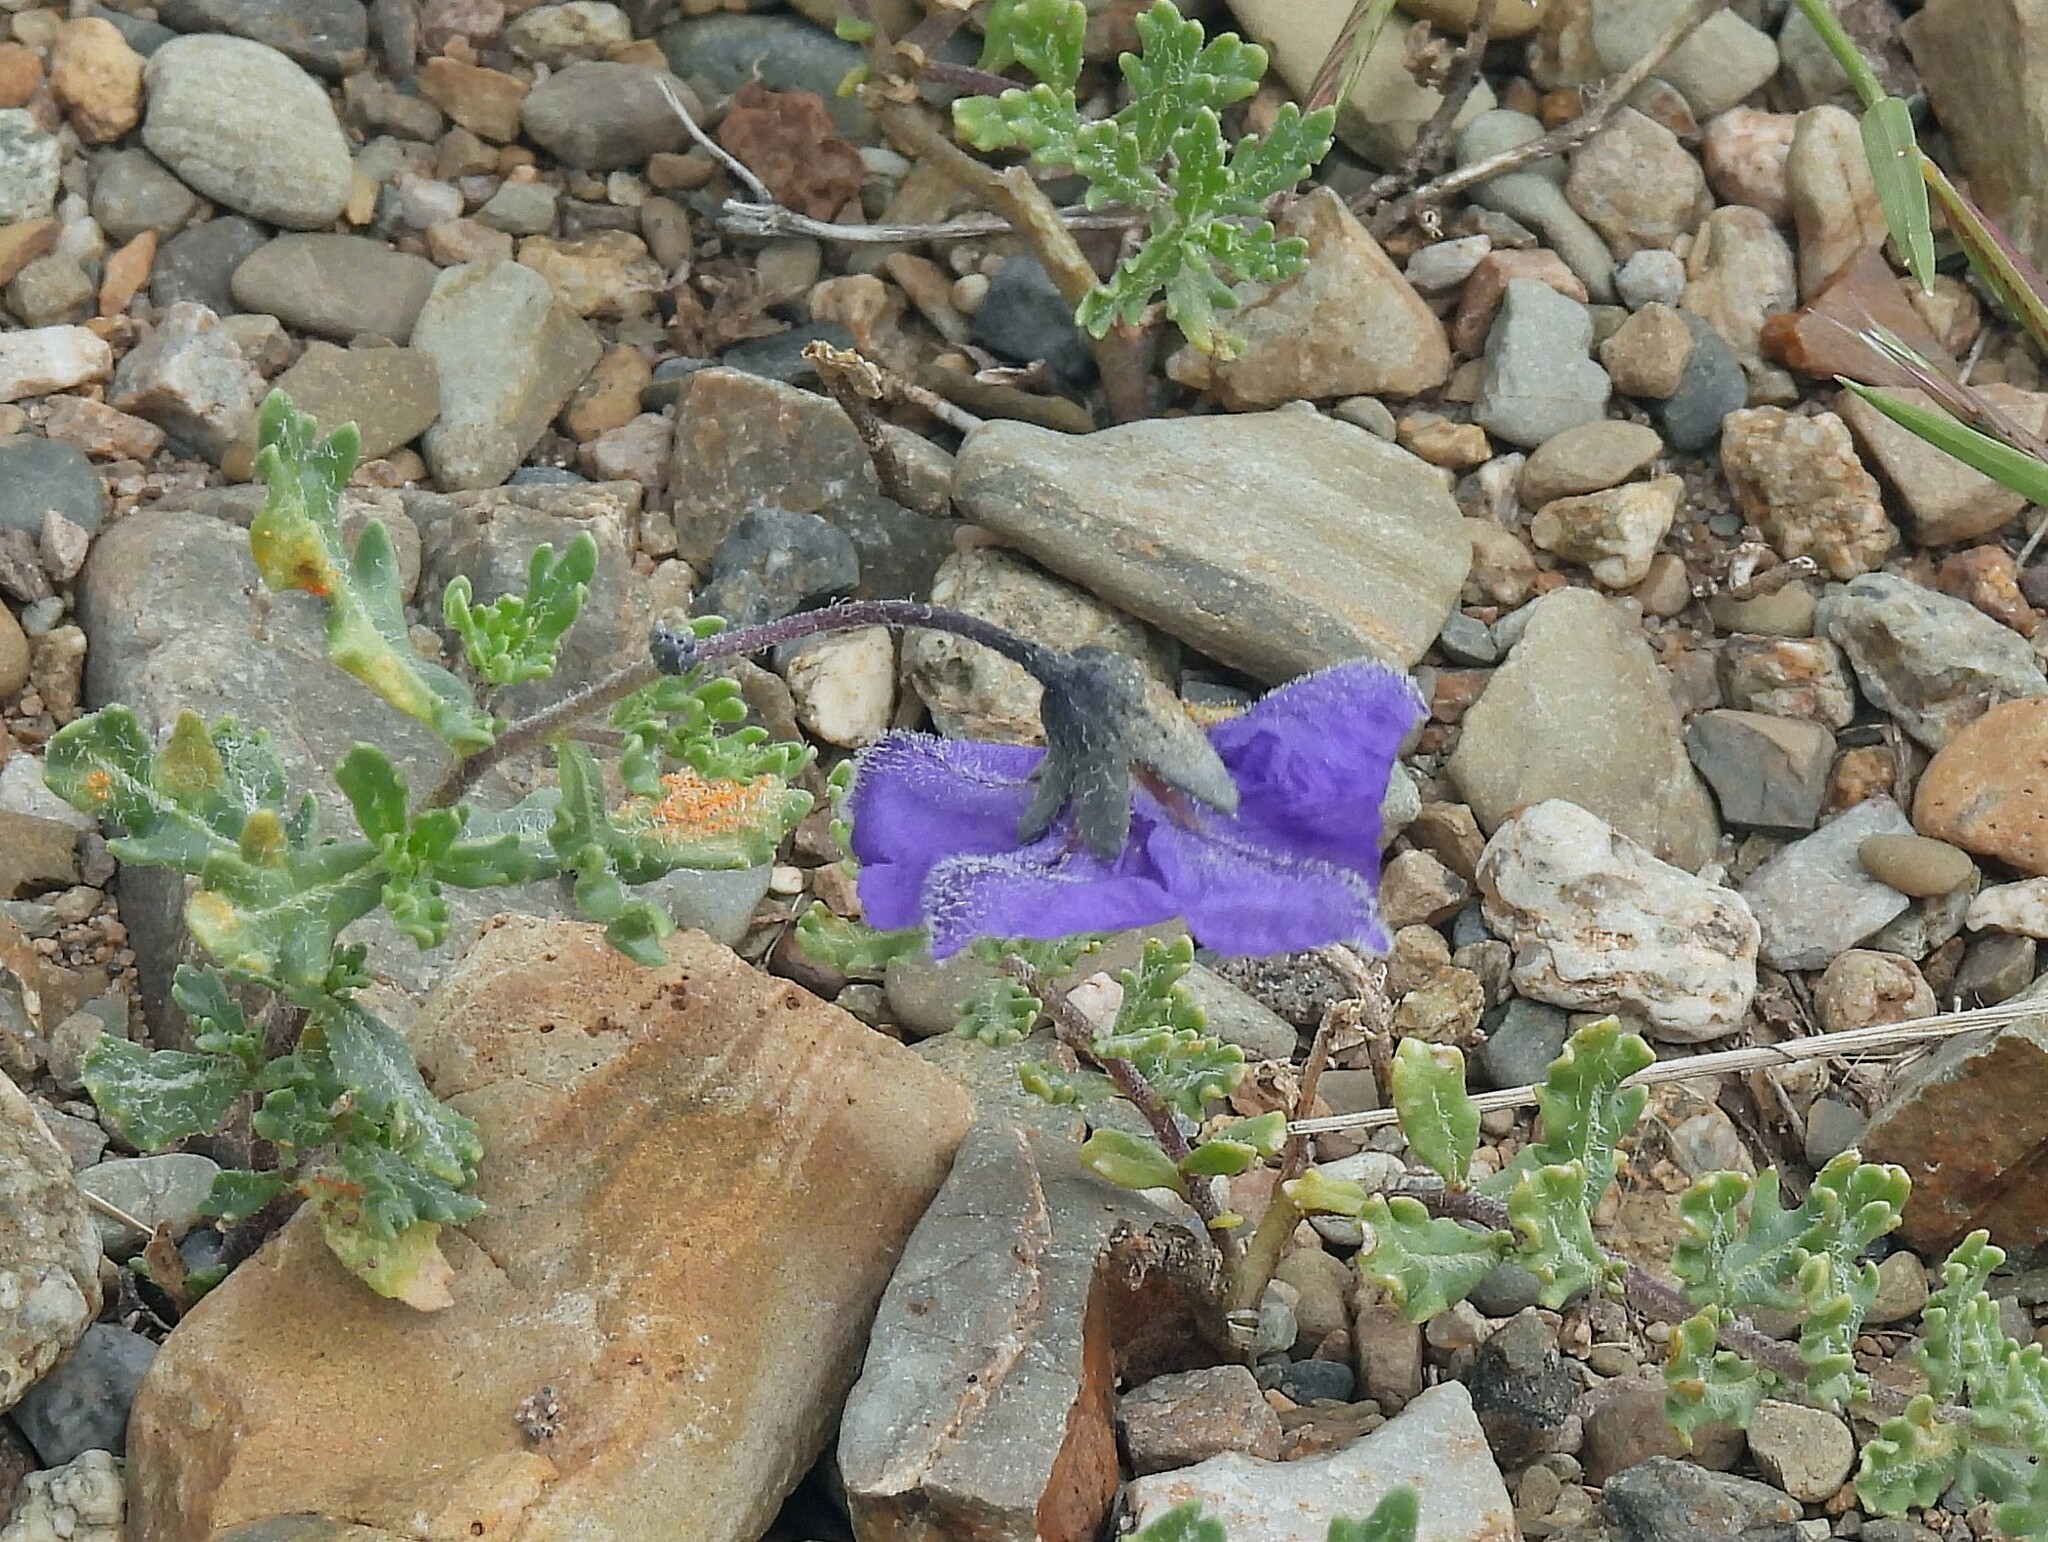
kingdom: Plantae
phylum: Tracheophyta
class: Magnoliopsida
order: Solanales
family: Solanaceae
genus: Solanum
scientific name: Solanum sinuatirecurvum
